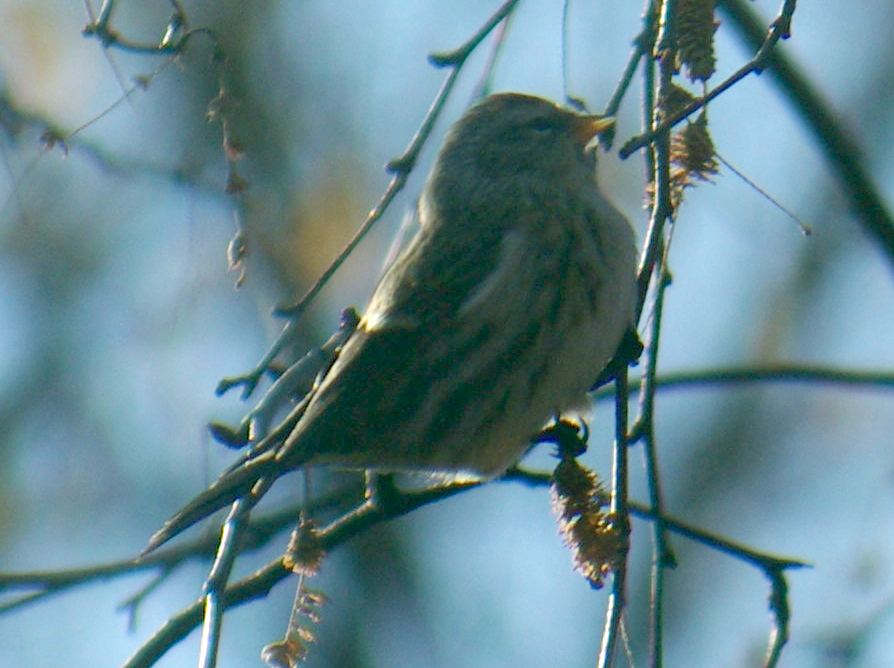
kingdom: Animalia
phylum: Chordata
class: Aves
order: Passeriformes
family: Fringillidae
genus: Acanthis
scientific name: Acanthis flammea
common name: Common redpoll
